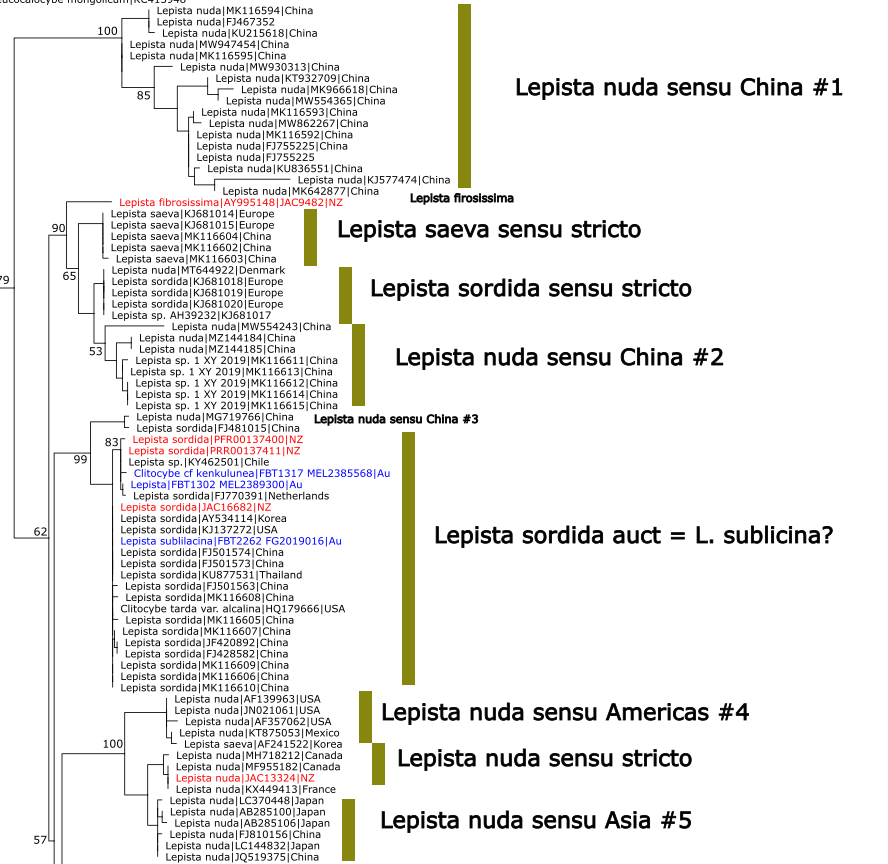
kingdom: Fungi
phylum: Basidiomycota
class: Agaricomycetes
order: Agaricales
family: Tricholomataceae
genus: Collybia
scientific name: Collybia
